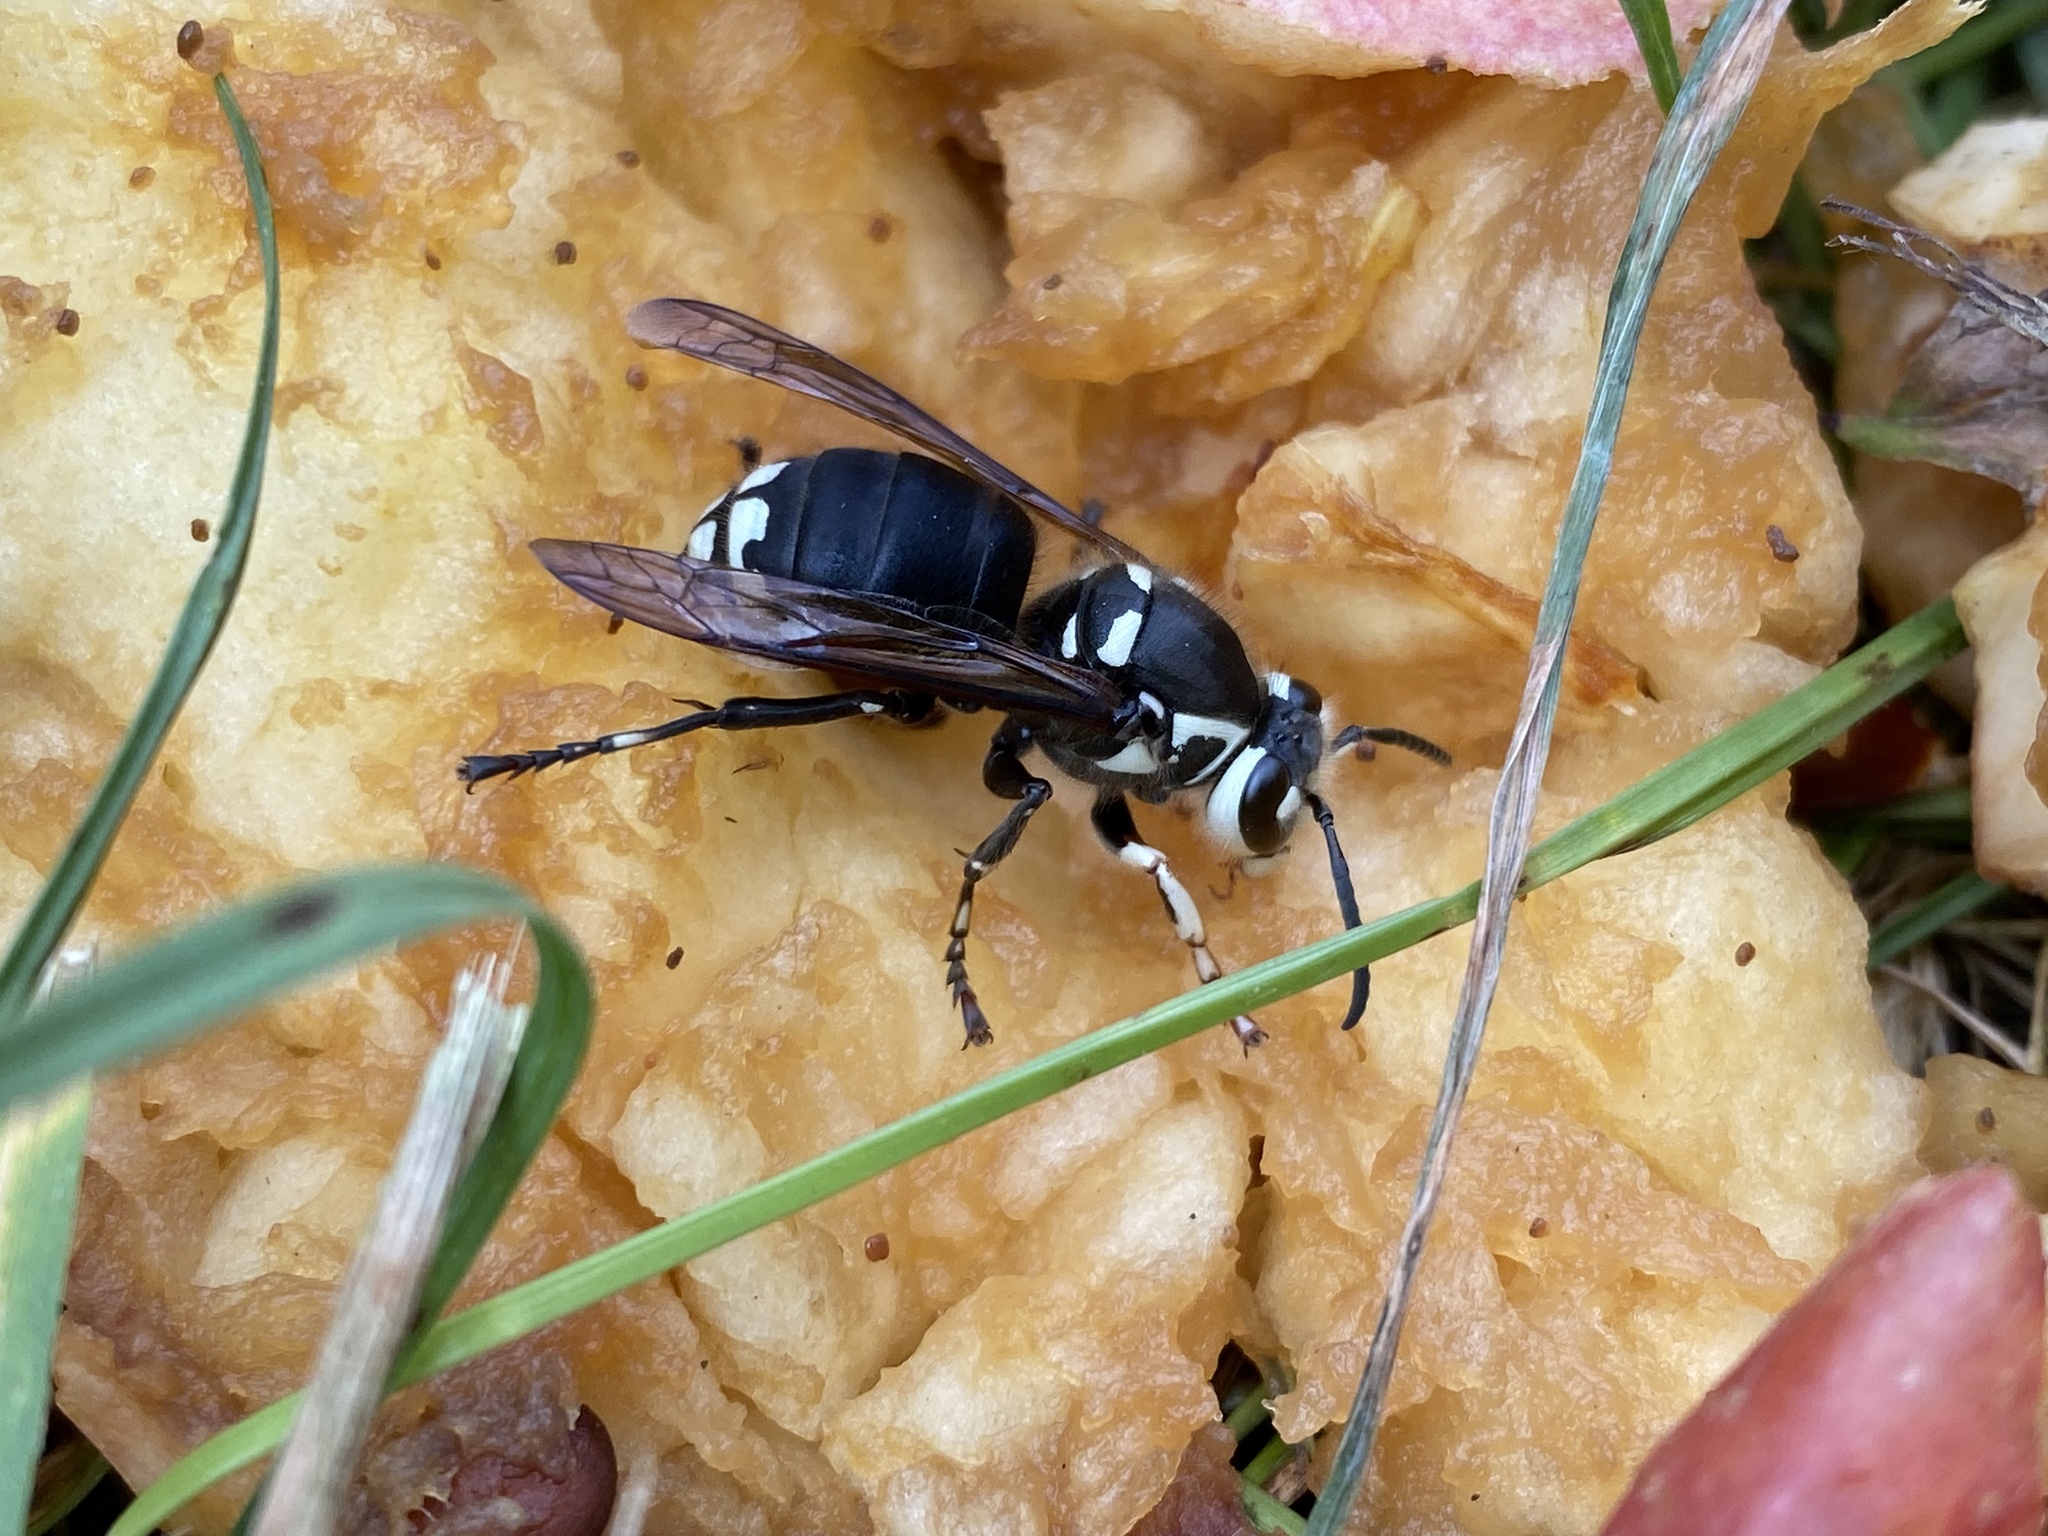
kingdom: Animalia
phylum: Arthropoda
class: Insecta
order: Hymenoptera
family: Vespidae
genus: Dolichovespula
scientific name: Dolichovespula maculata
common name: Bald-faced hornet
